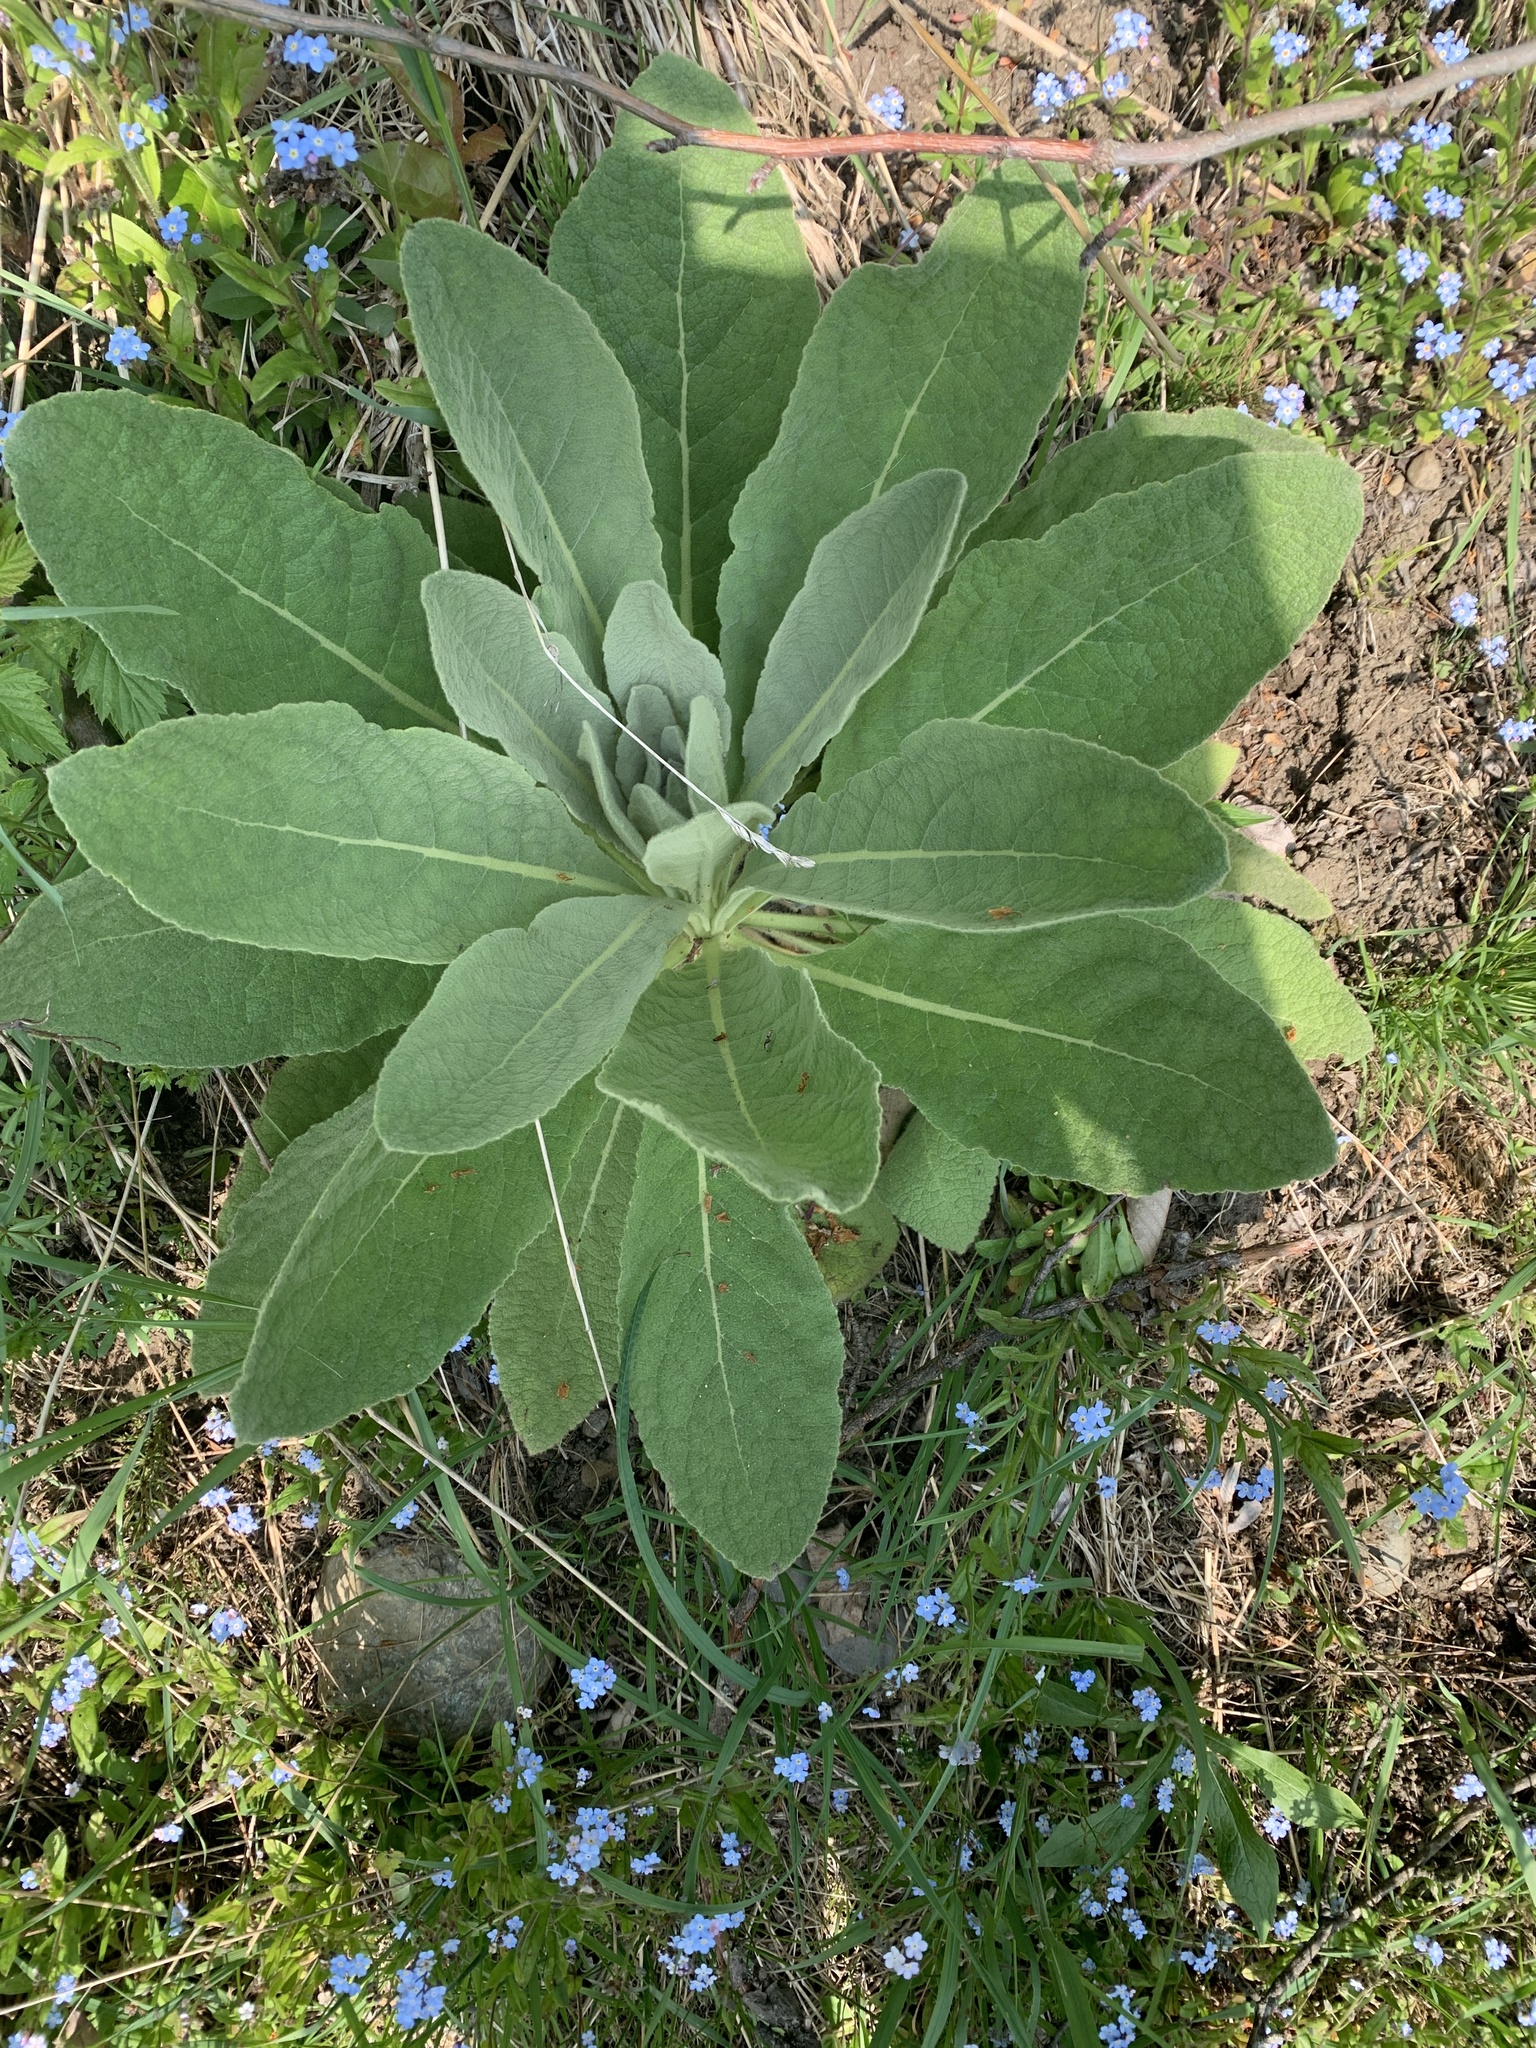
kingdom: Plantae
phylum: Tracheophyta
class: Magnoliopsida
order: Lamiales
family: Scrophulariaceae
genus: Verbascum
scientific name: Verbascum thapsus
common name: Common mullein
